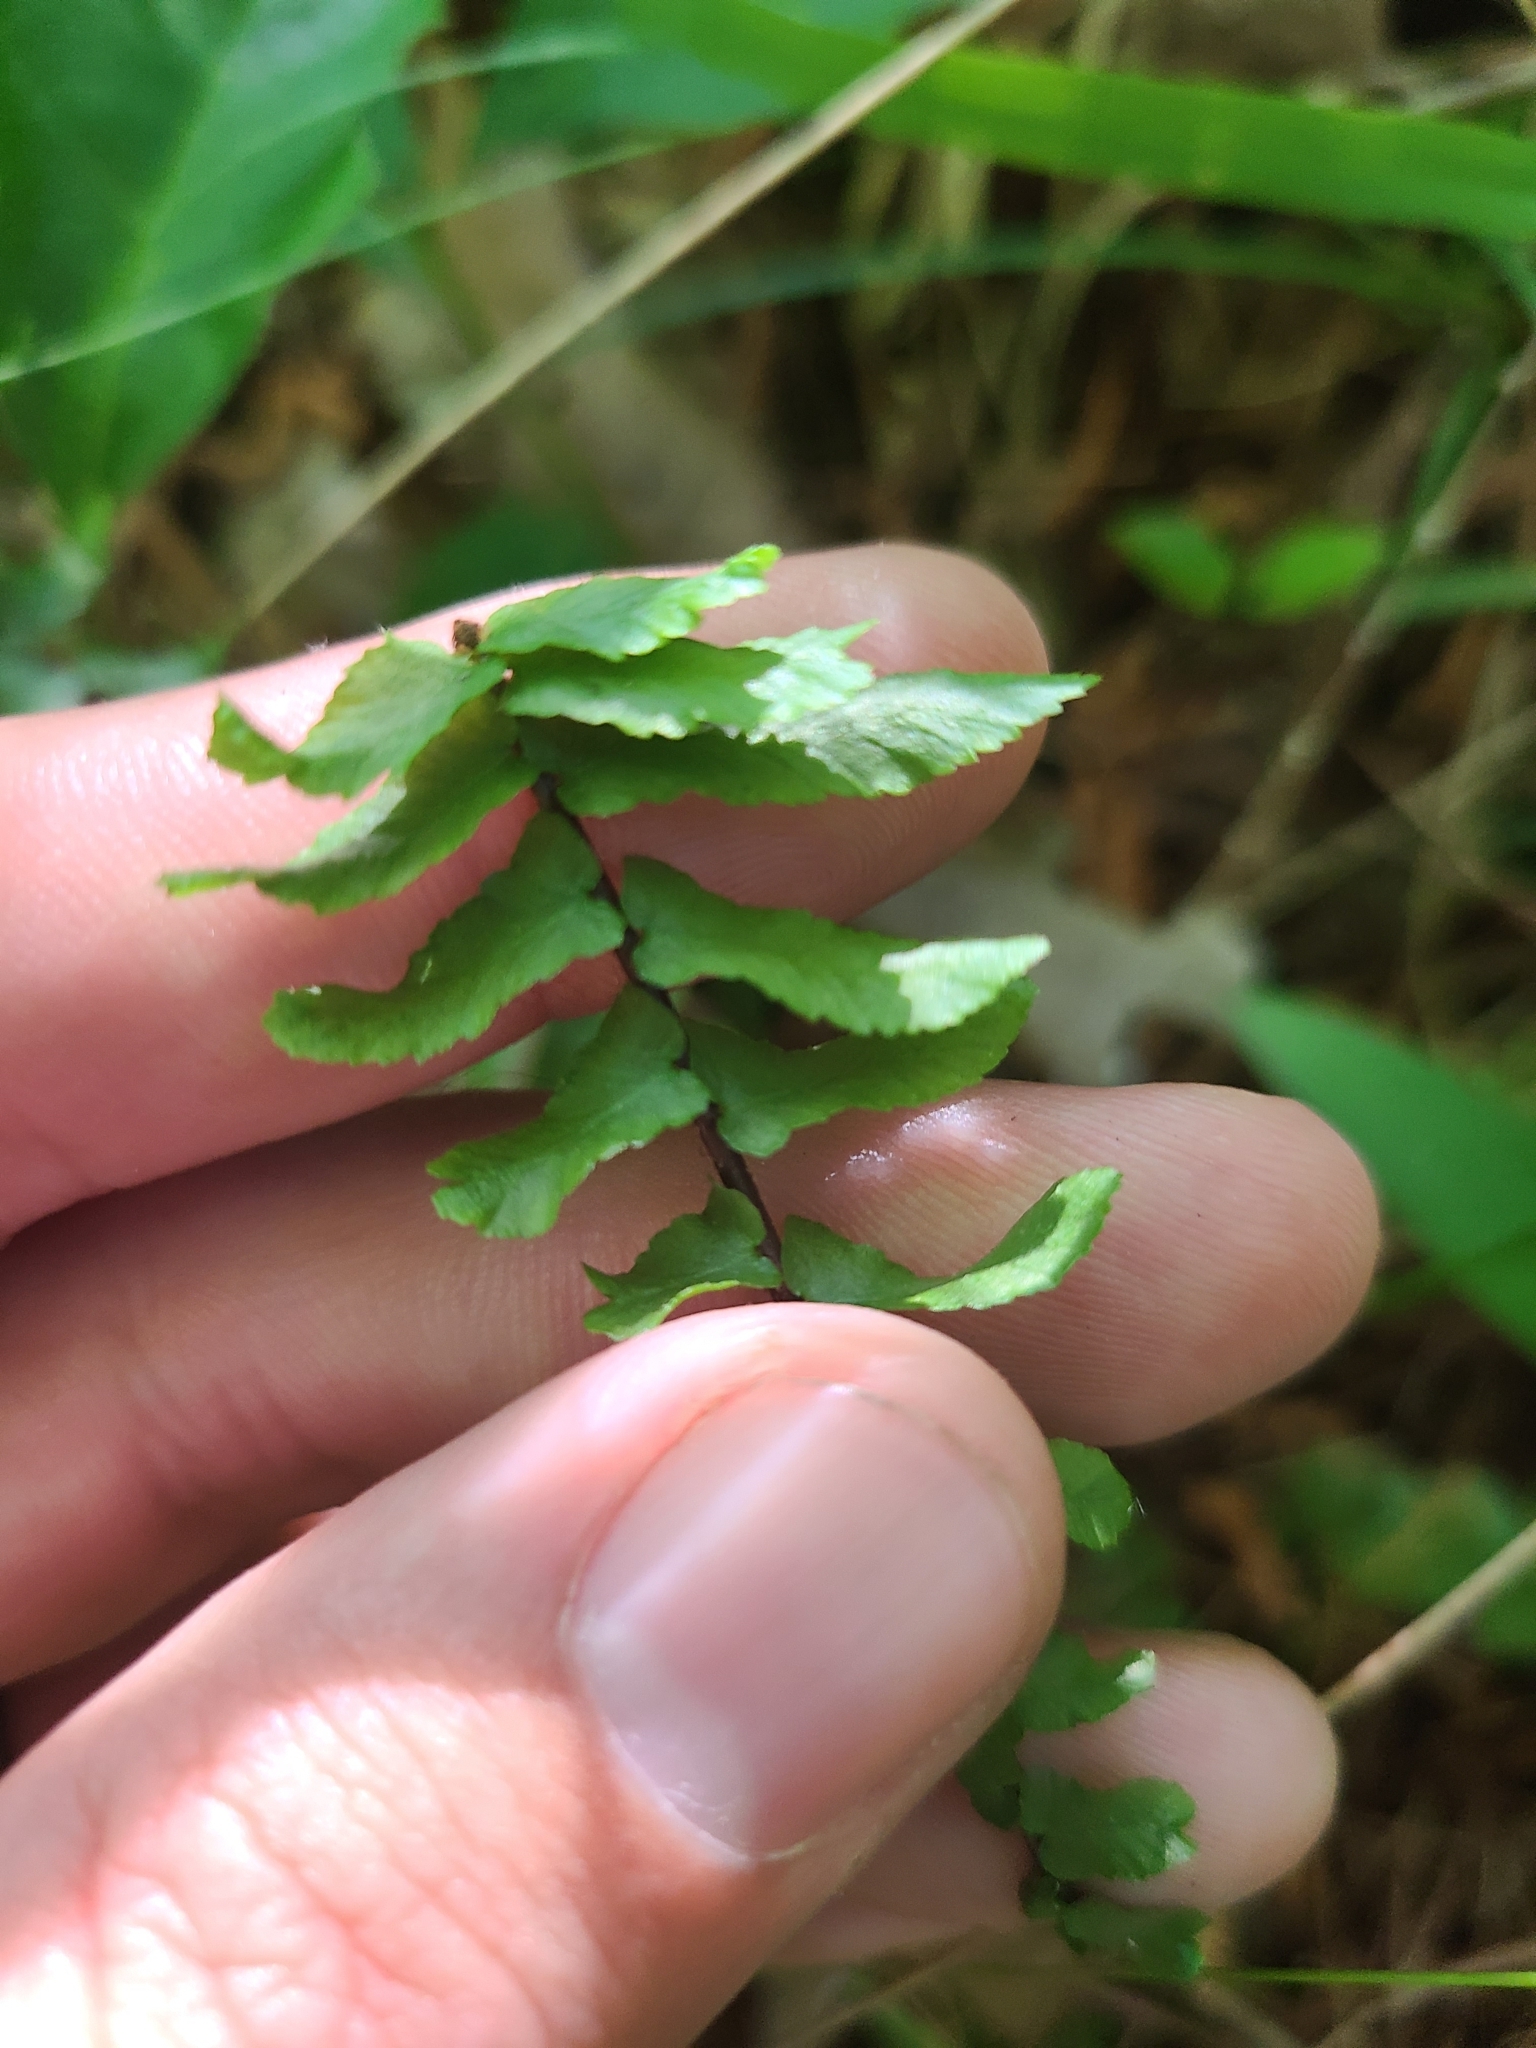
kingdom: Plantae
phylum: Tracheophyta
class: Polypodiopsida
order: Polypodiales
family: Aspleniaceae
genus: Asplenium
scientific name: Asplenium platyneuron
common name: Ebony spleenwort
